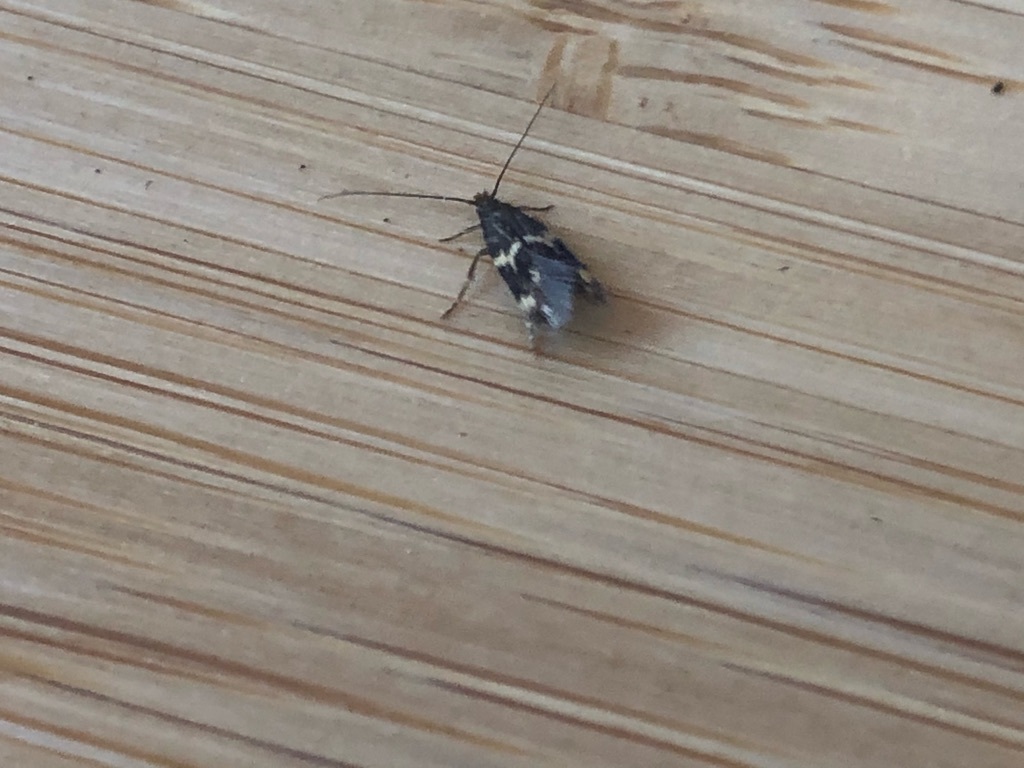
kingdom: Animalia
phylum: Arthropoda
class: Insecta
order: Lepidoptera
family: Tineidae
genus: Oinophila
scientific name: Oinophila v-flava
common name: Yellow v moth
